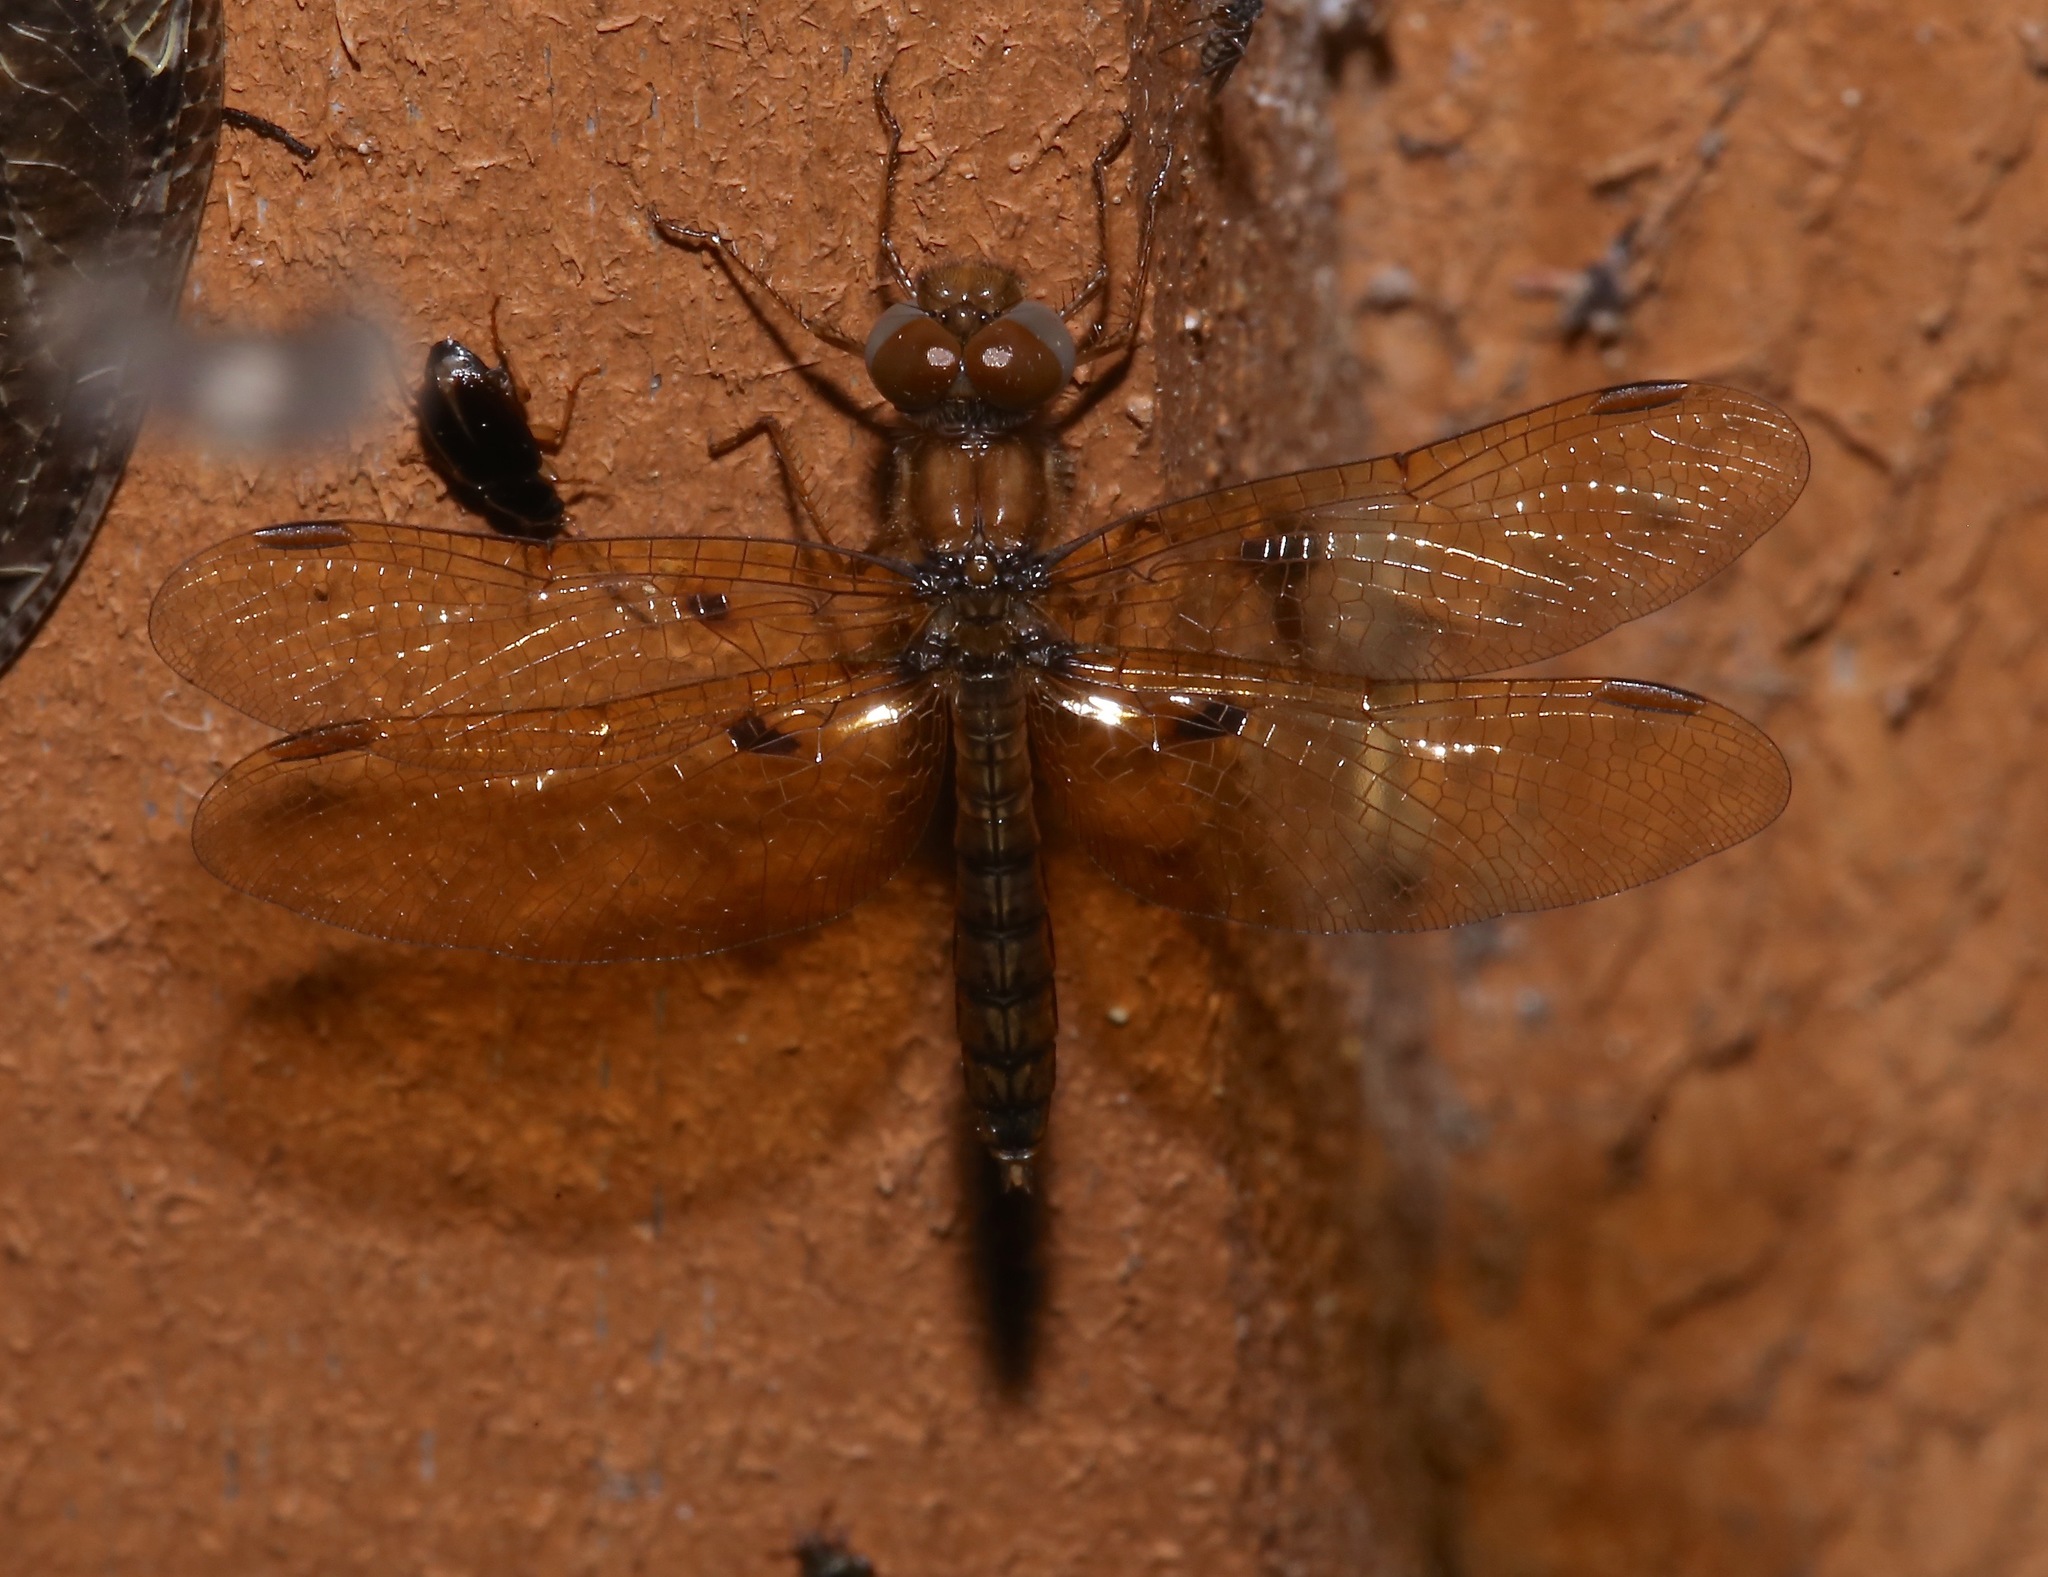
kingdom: Animalia
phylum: Arthropoda
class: Insecta
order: Odonata
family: Libellulidae
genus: Perithemis
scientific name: Perithemis tenera
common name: Eastern amberwing
